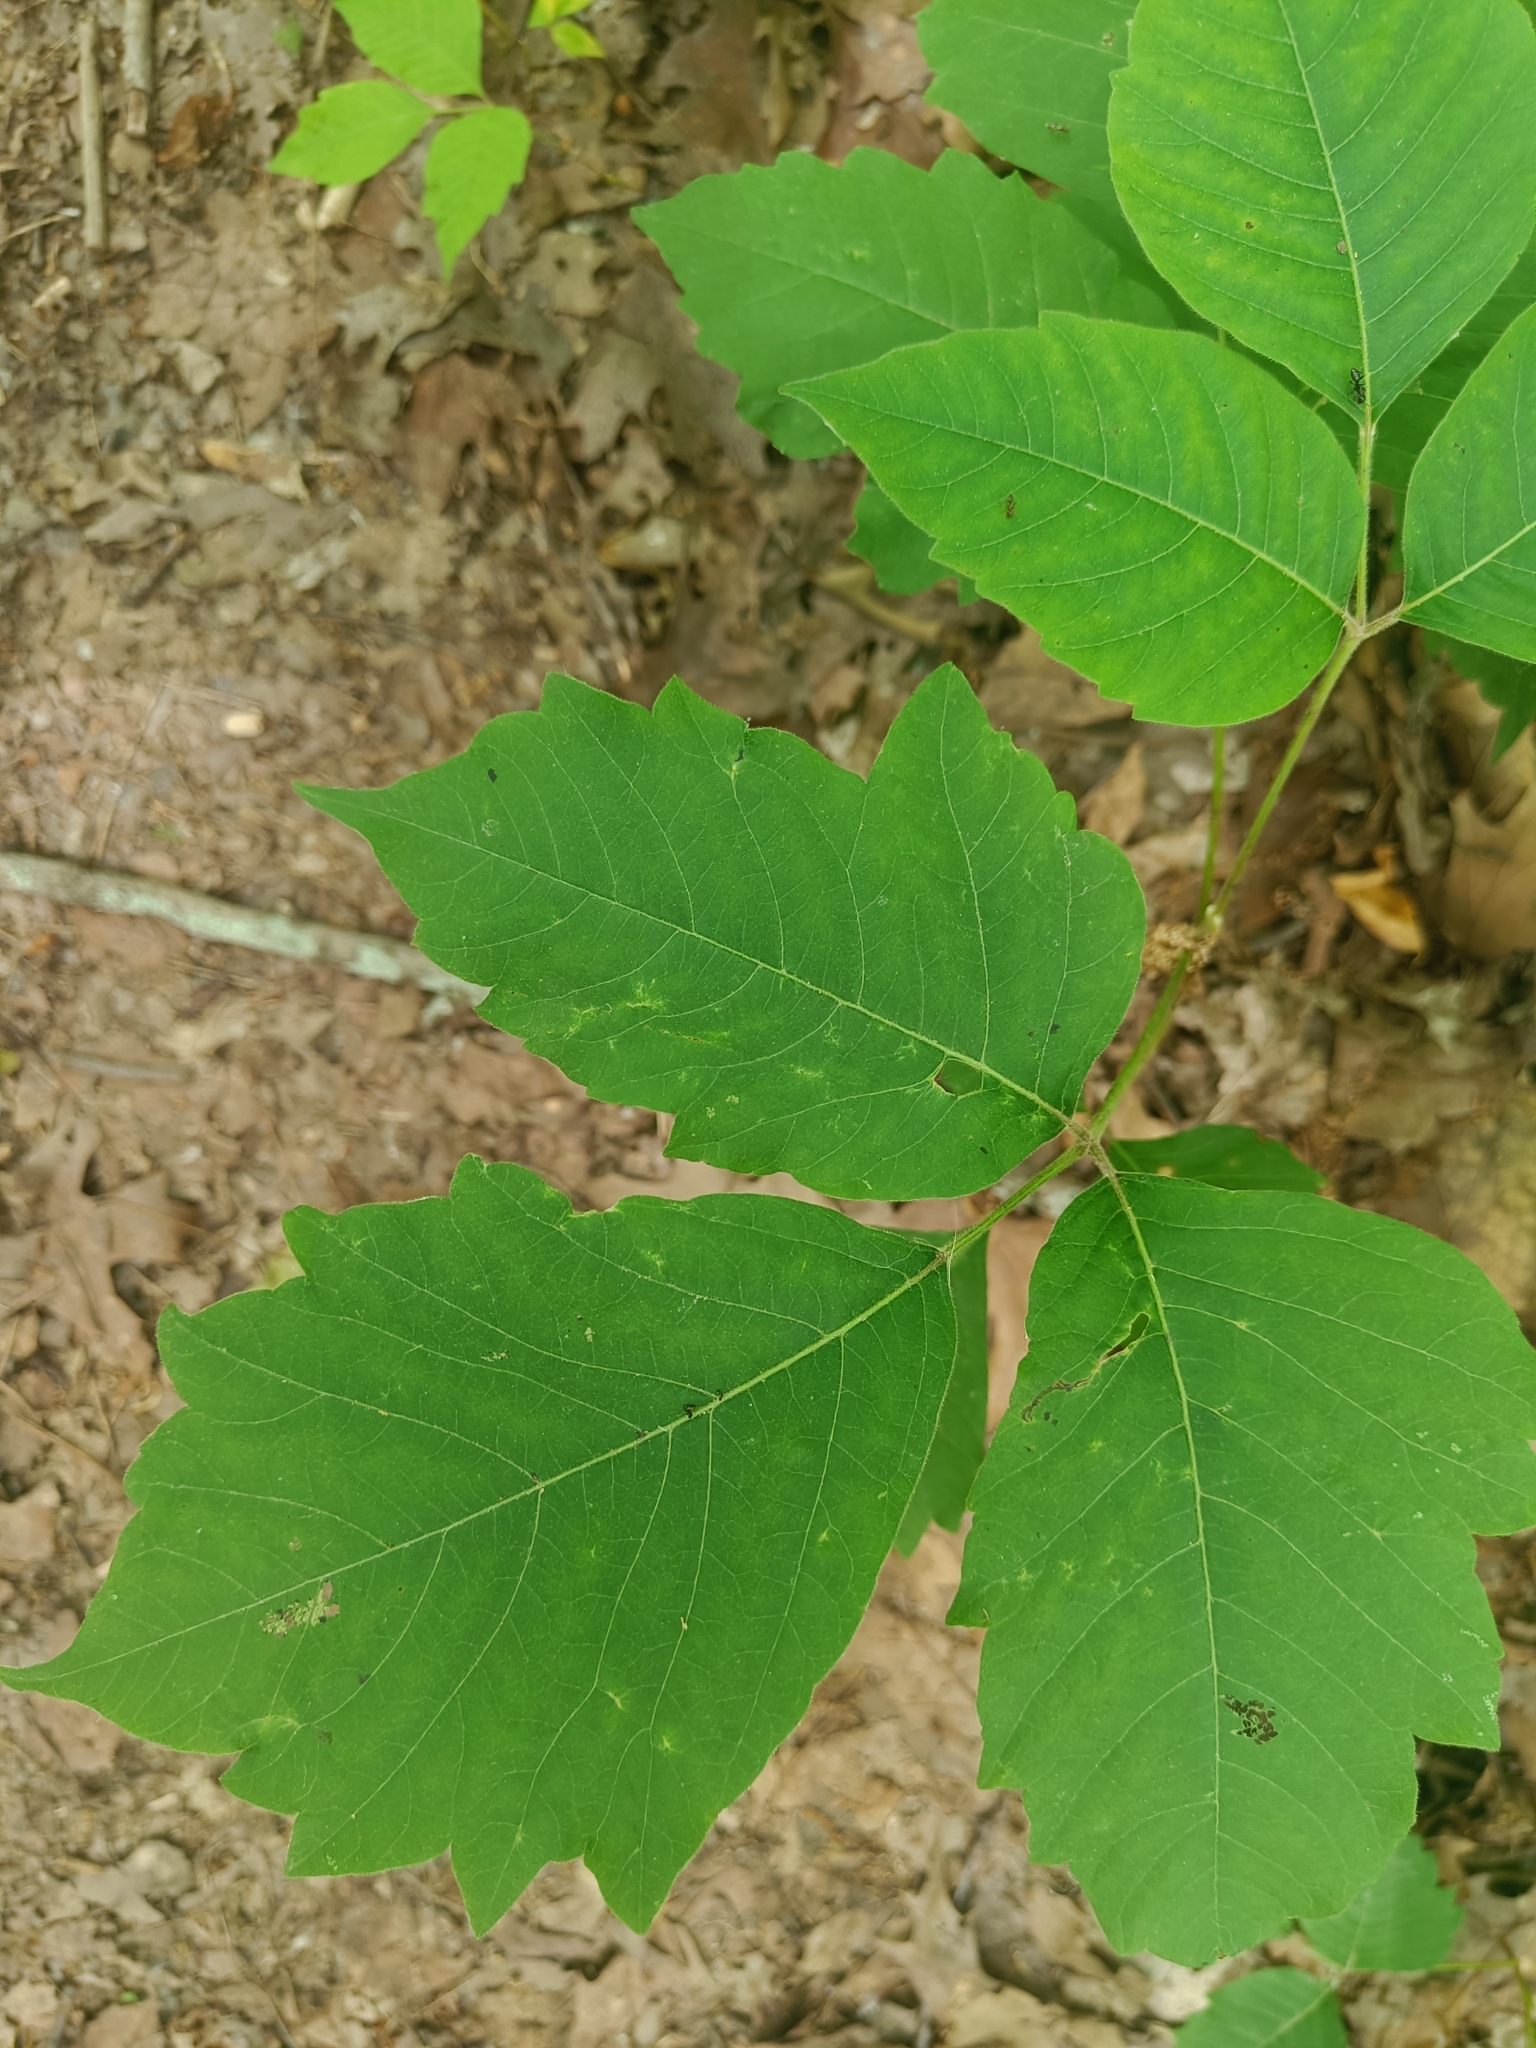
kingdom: Plantae
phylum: Tracheophyta
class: Magnoliopsida
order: Sapindales
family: Anacardiaceae
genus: Toxicodendron
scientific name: Toxicodendron radicans
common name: Poison ivy
